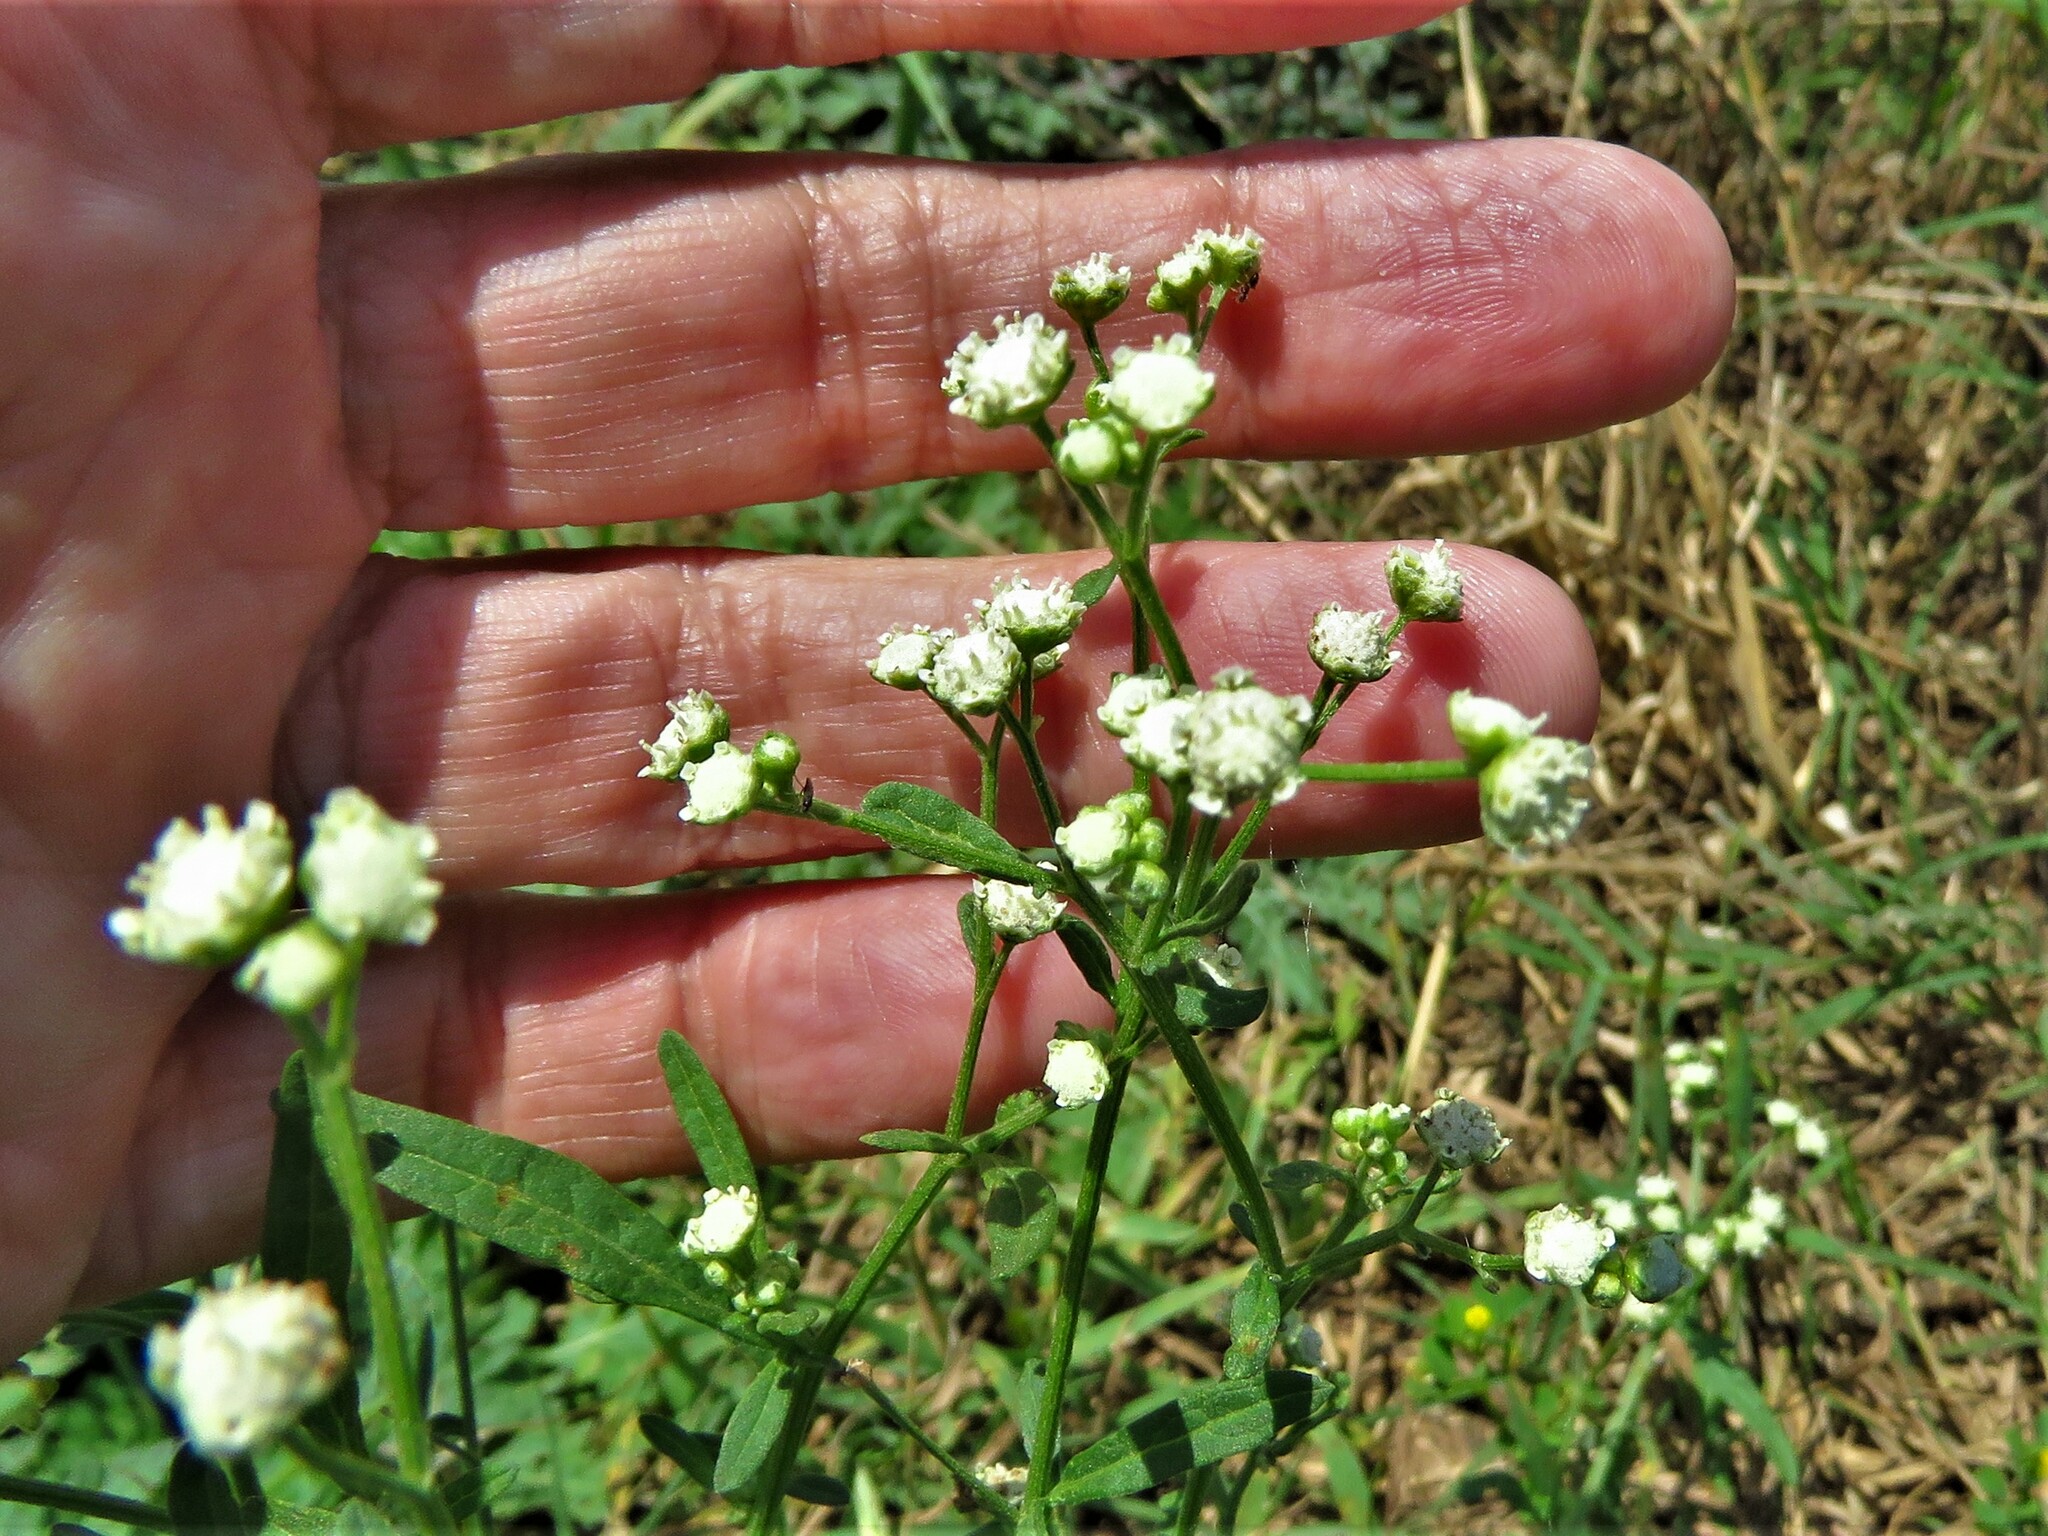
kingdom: Plantae
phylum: Tracheophyta
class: Magnoliopsida
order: Asterales
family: Asteraceae
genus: Parthenium
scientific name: Parthenium hysterophorus
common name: Santa maria feverfew
